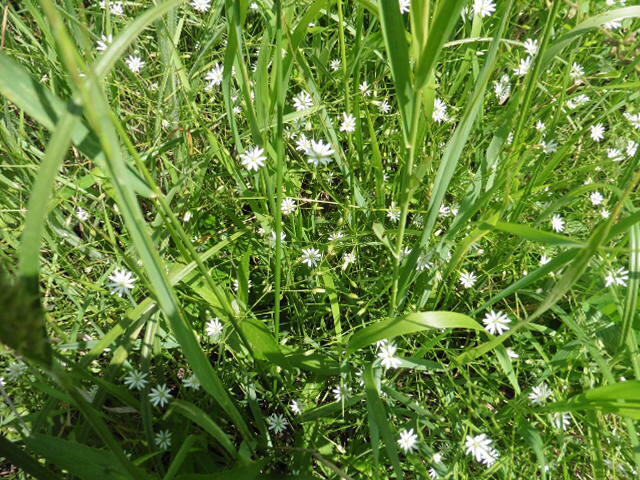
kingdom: Plantae
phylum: Tracheophyta
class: Magnoliopsida
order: Caryophyllales
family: Caryophyllaceae
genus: Stellaria
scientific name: Stellaria graminea
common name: Grass-like starwort
